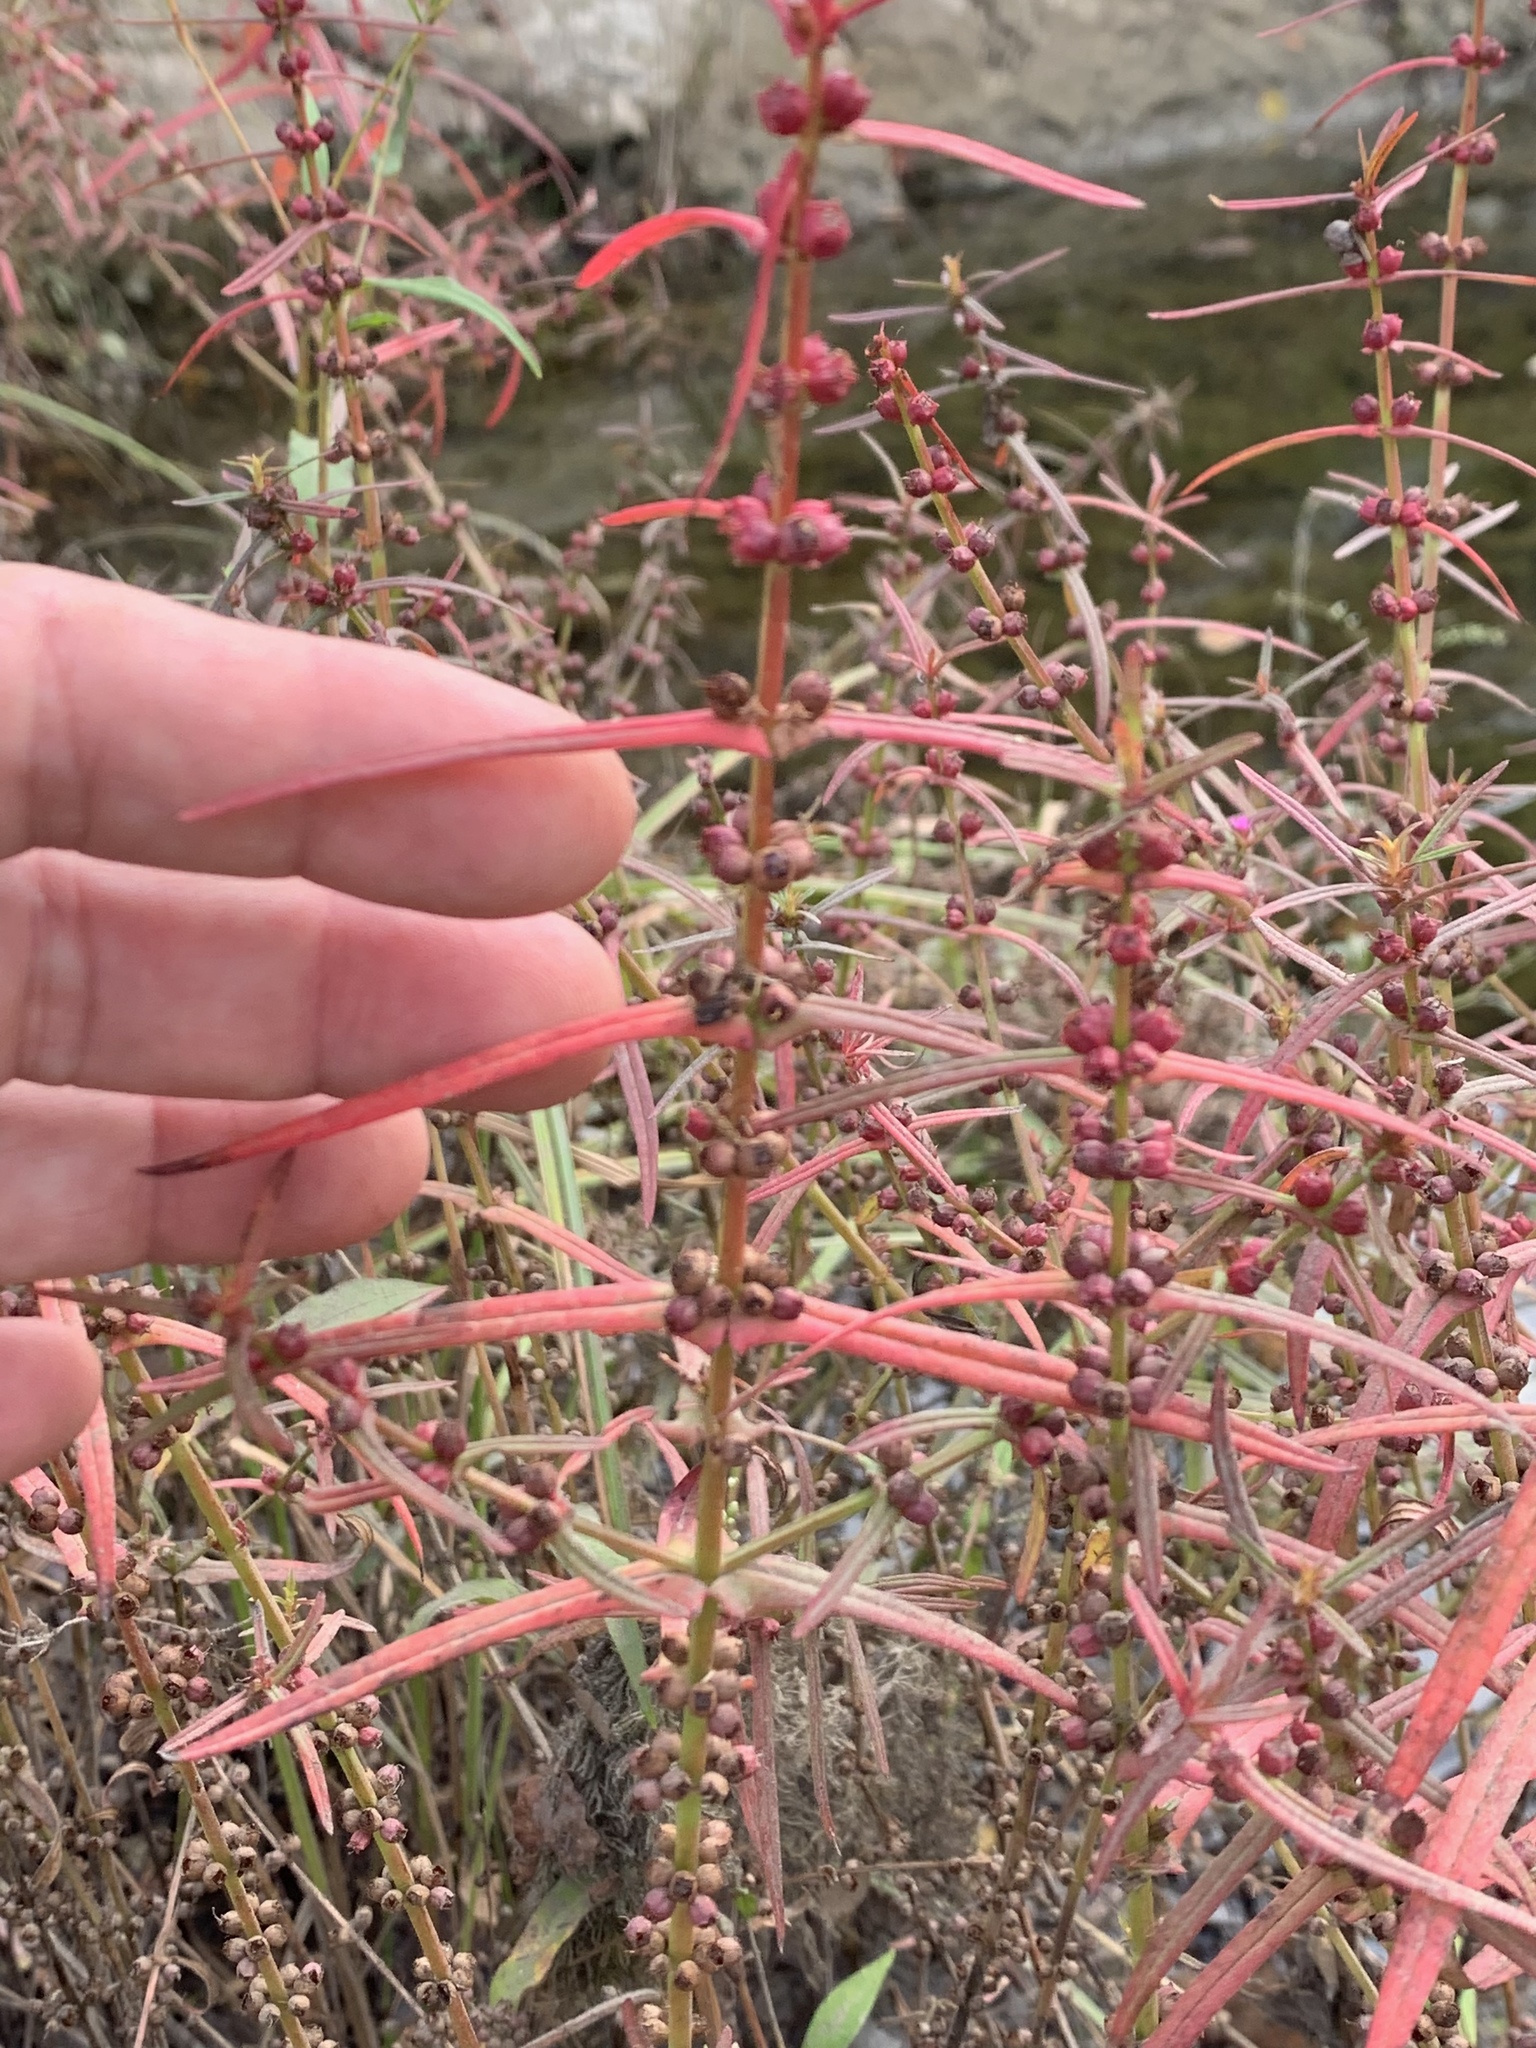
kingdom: Plantae
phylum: Tracheophyta
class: Magnoliopsida
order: Myrtales
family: Lythraceae
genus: Ammannia
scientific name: Ammannia coccinea
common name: Valley redstem
